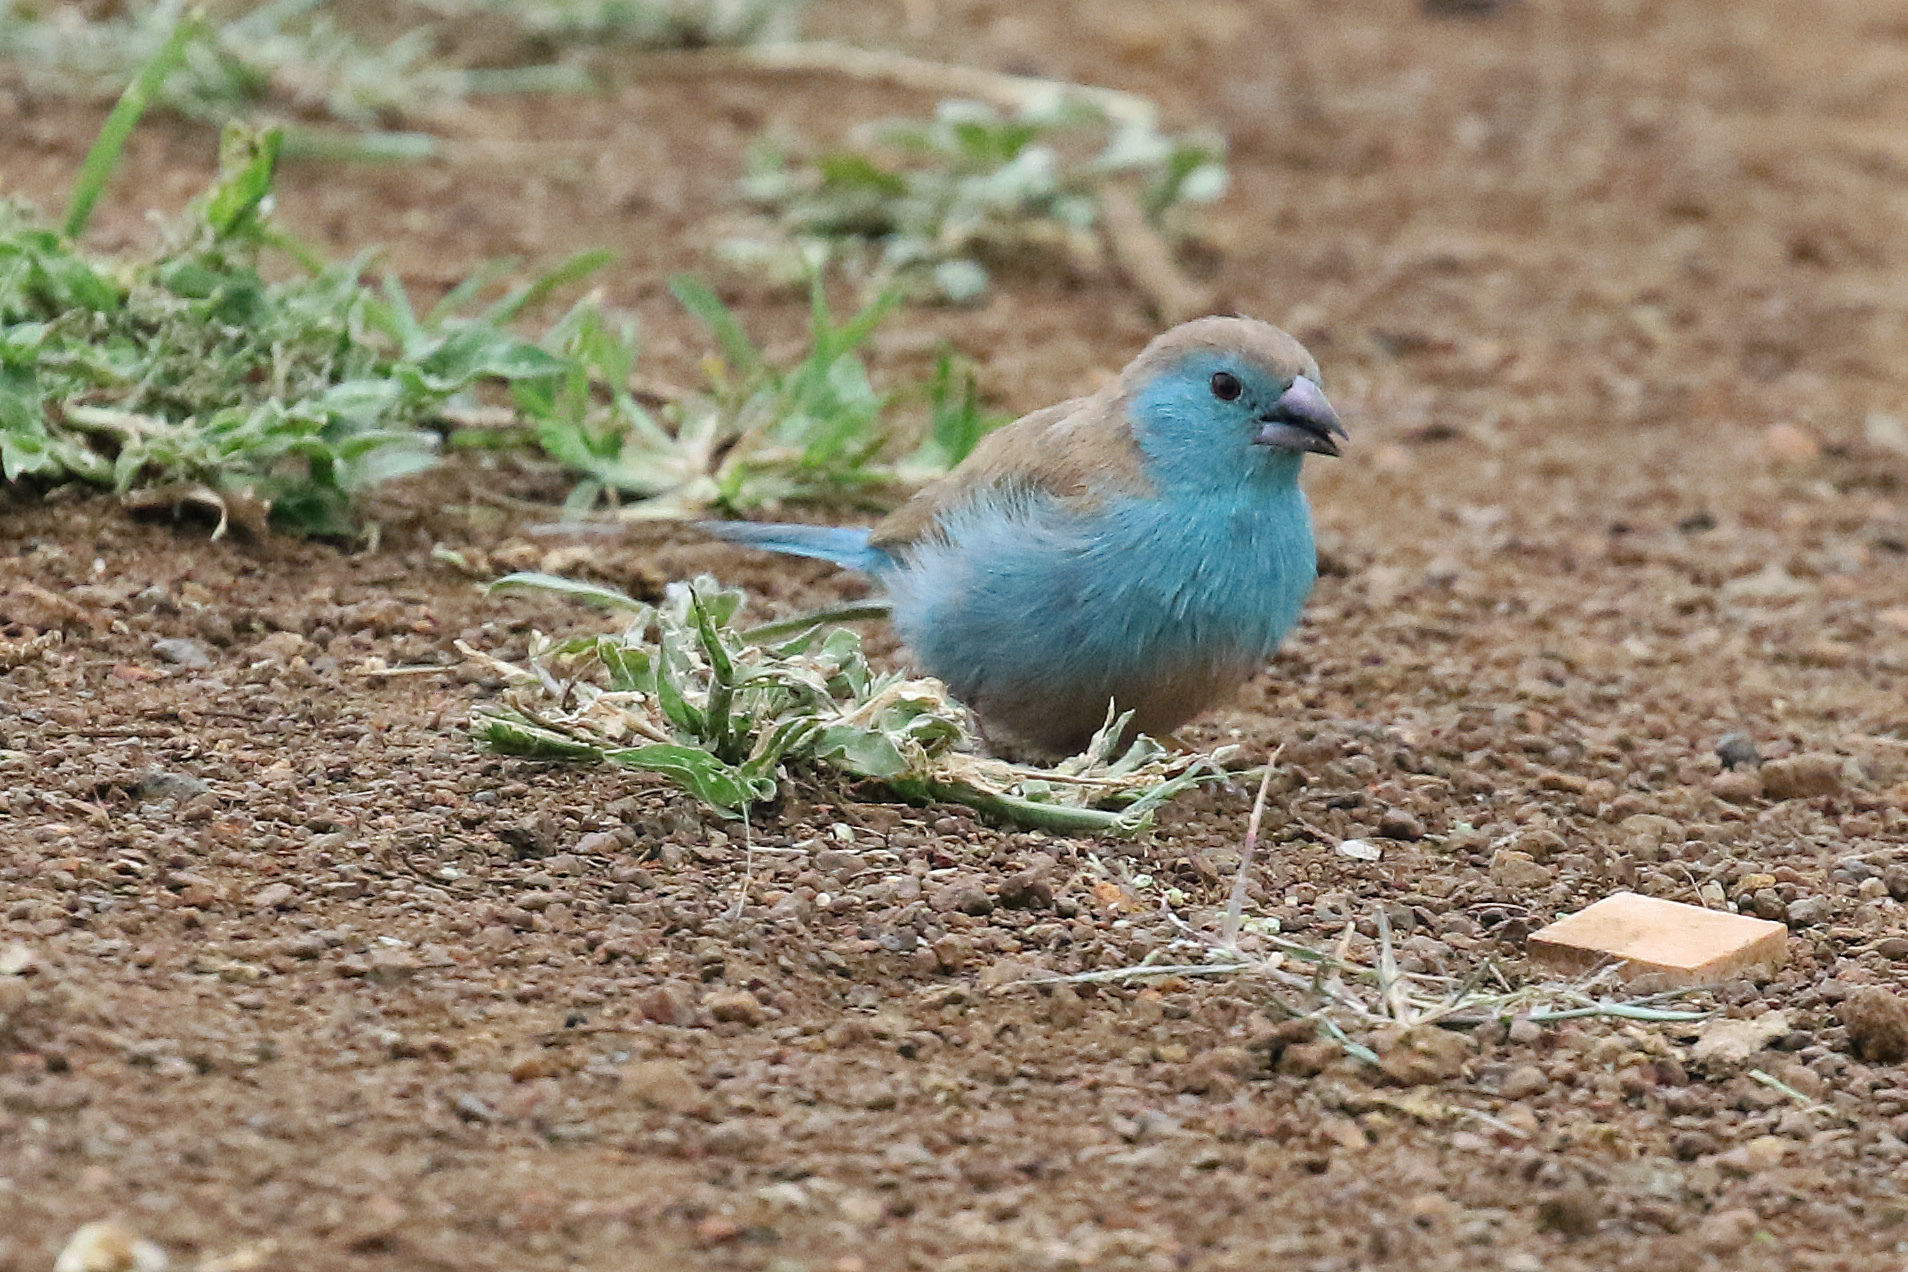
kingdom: Animalia
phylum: Chordata
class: Aves
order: Passeriformes
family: Estrildidae
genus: Uraeginthus
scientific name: Uraeginthus angolensis
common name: Blue waxbill
